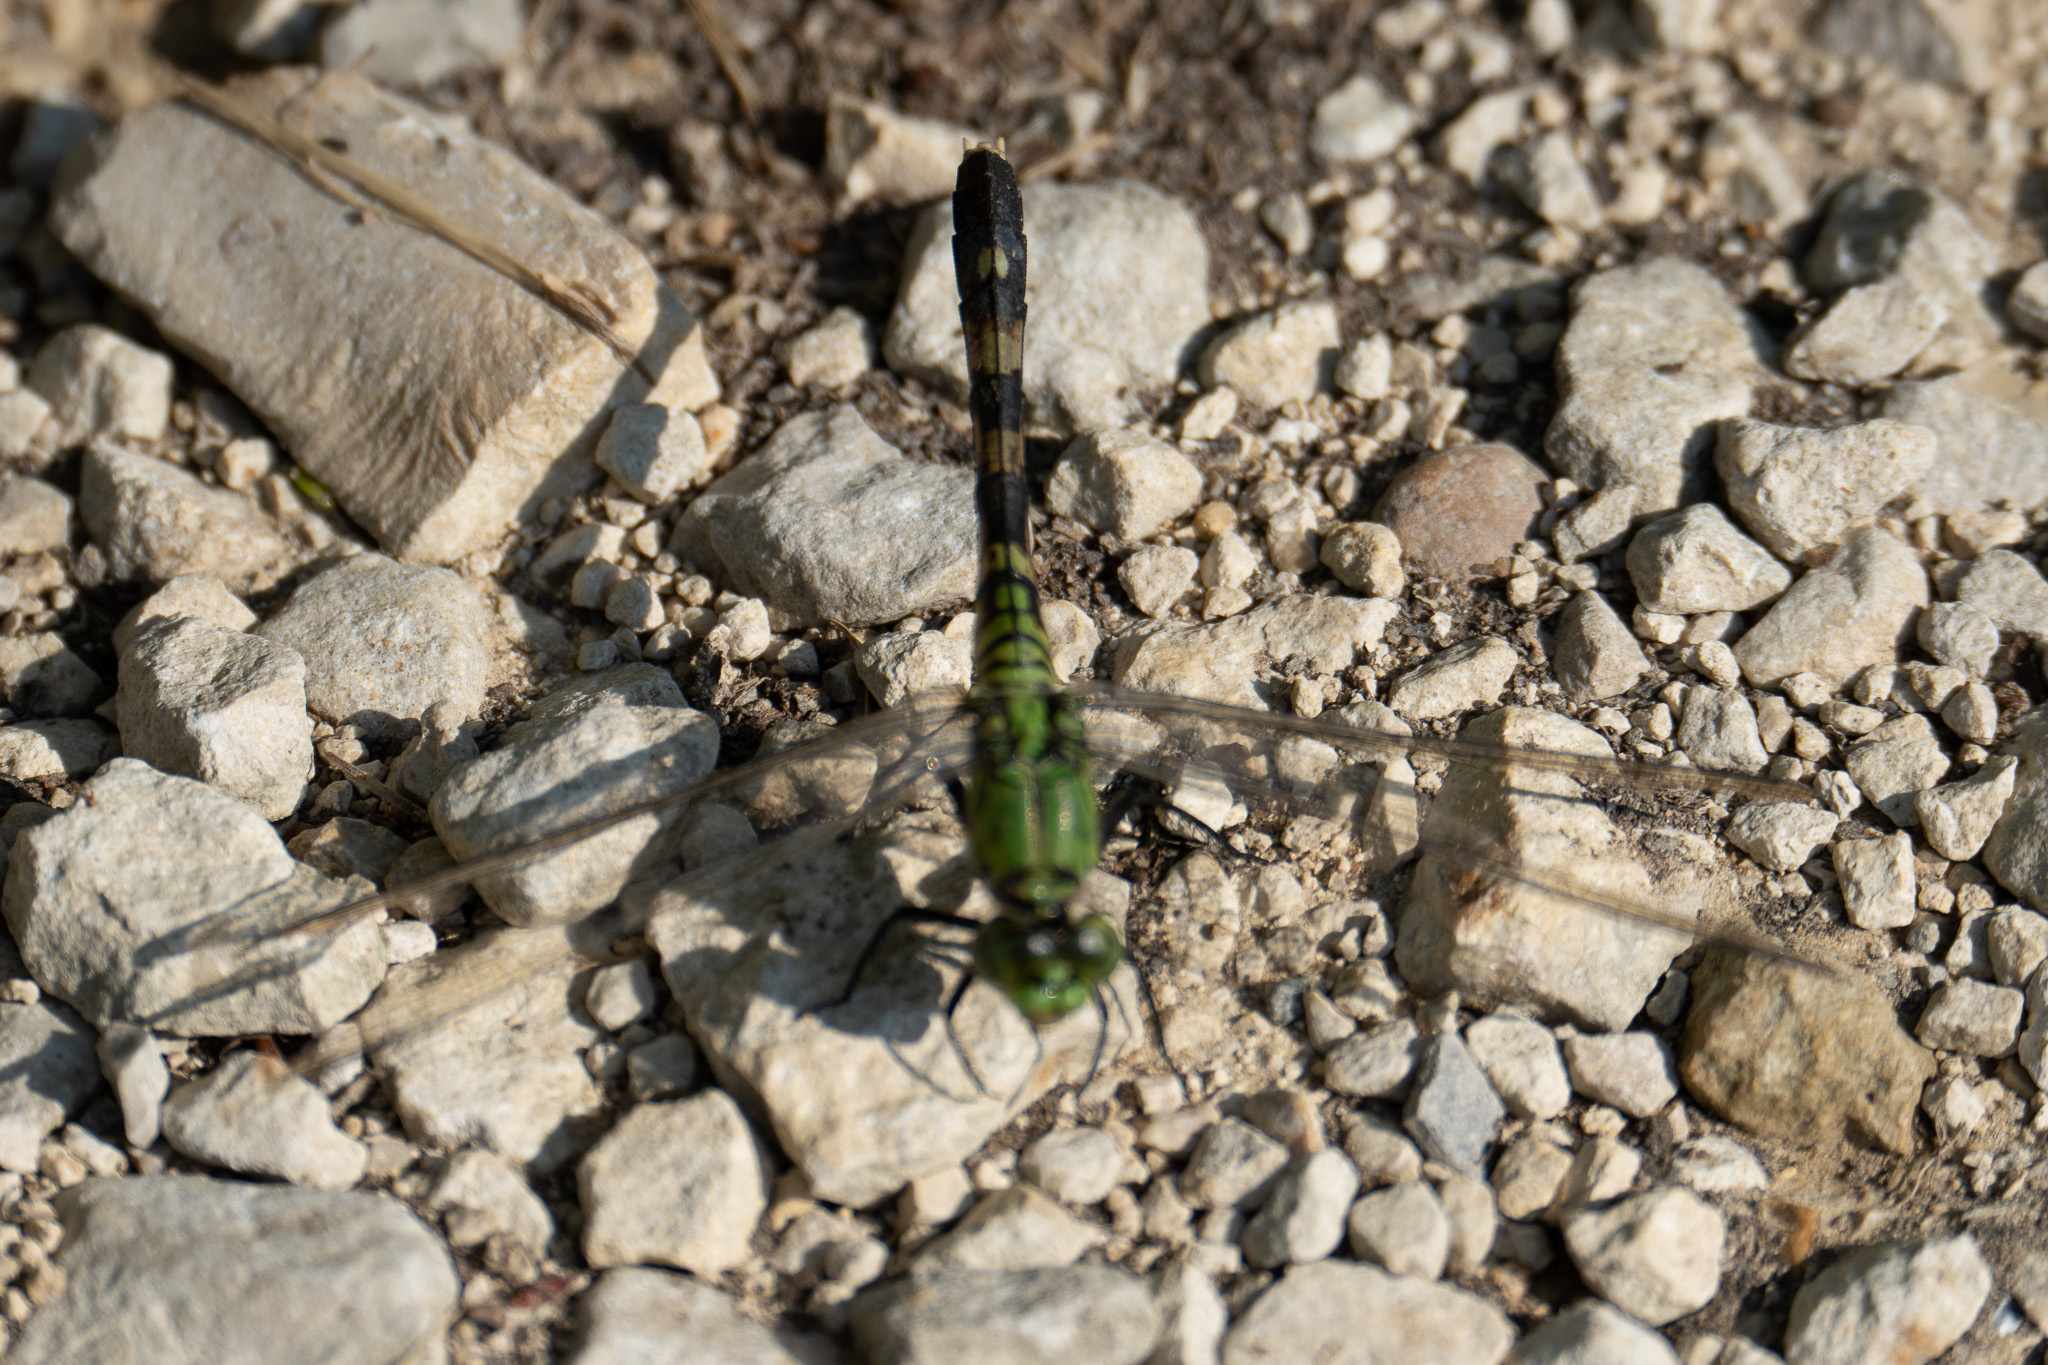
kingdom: Animalia
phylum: Arthropoda
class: Insecta
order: Odonata
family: Libellulidae
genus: Erythemis
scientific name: Erythemis simplicicollis
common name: Eastern pondhawk
